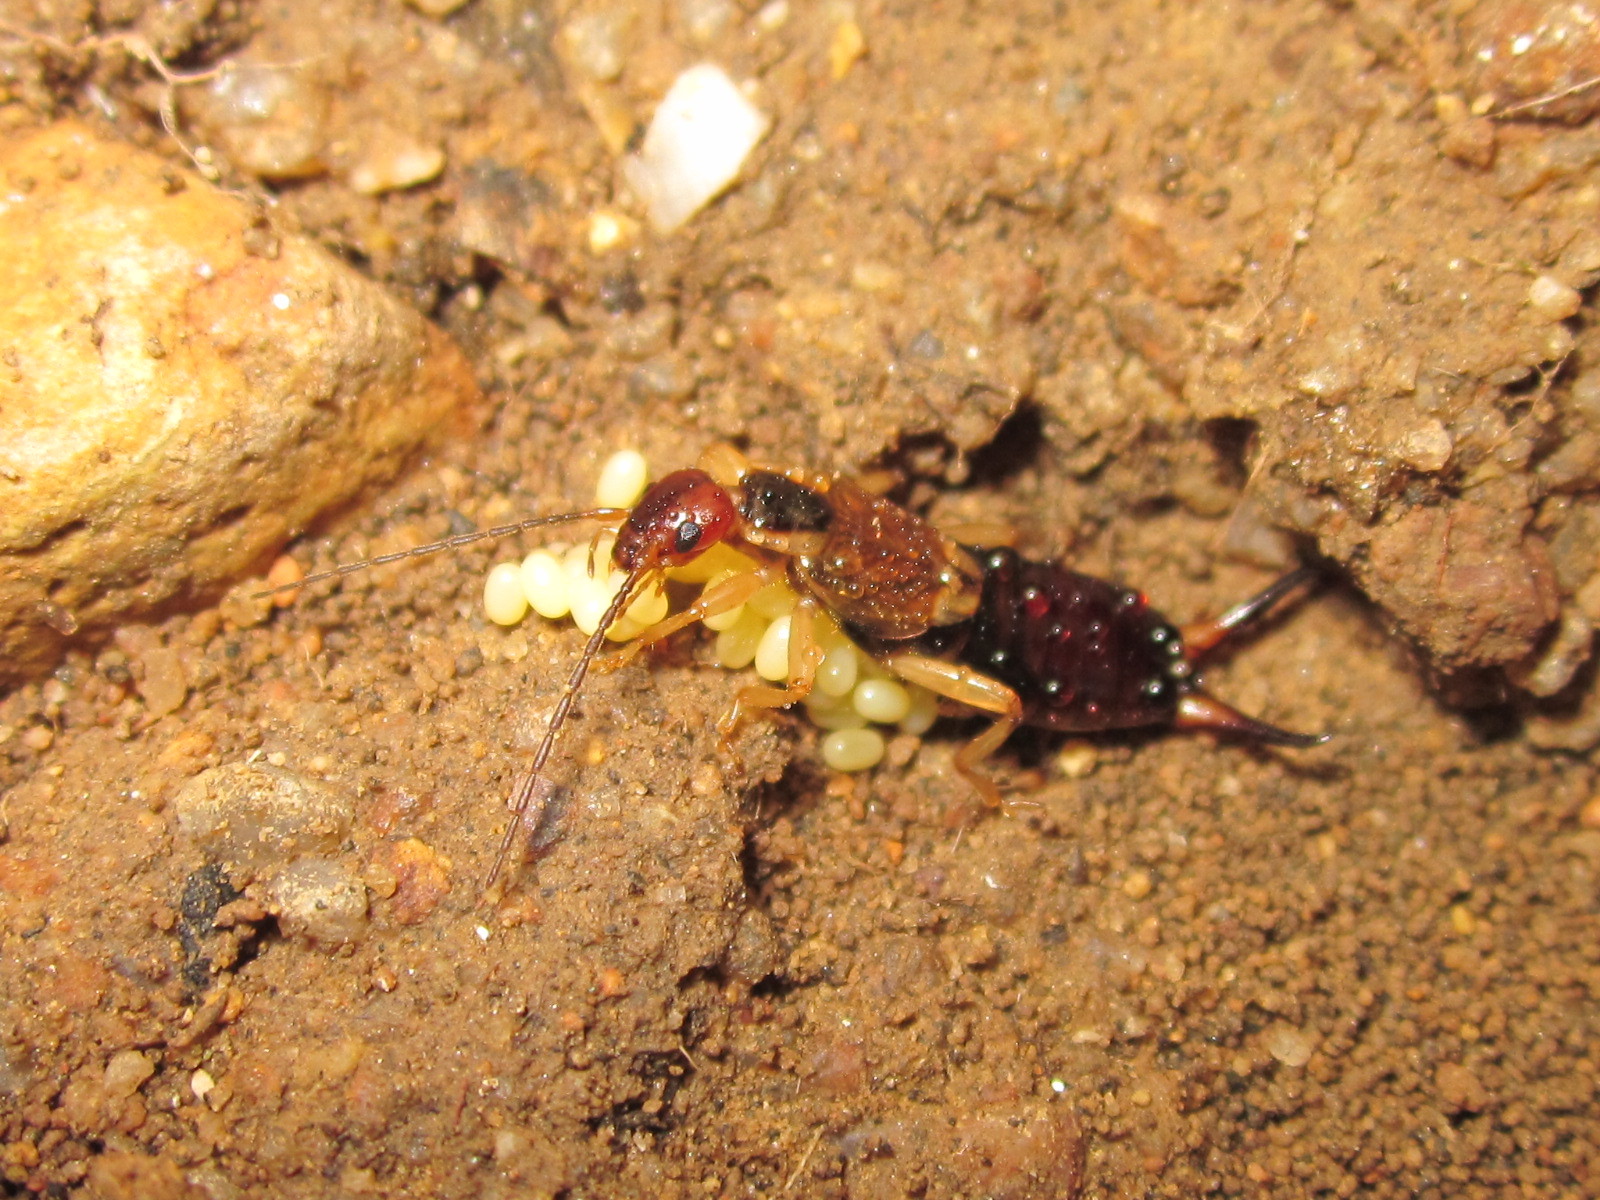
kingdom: Animalia
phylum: Arthropoda
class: Insecta
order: Dermaptera
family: Forficulidae
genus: Forficula
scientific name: Forficula
